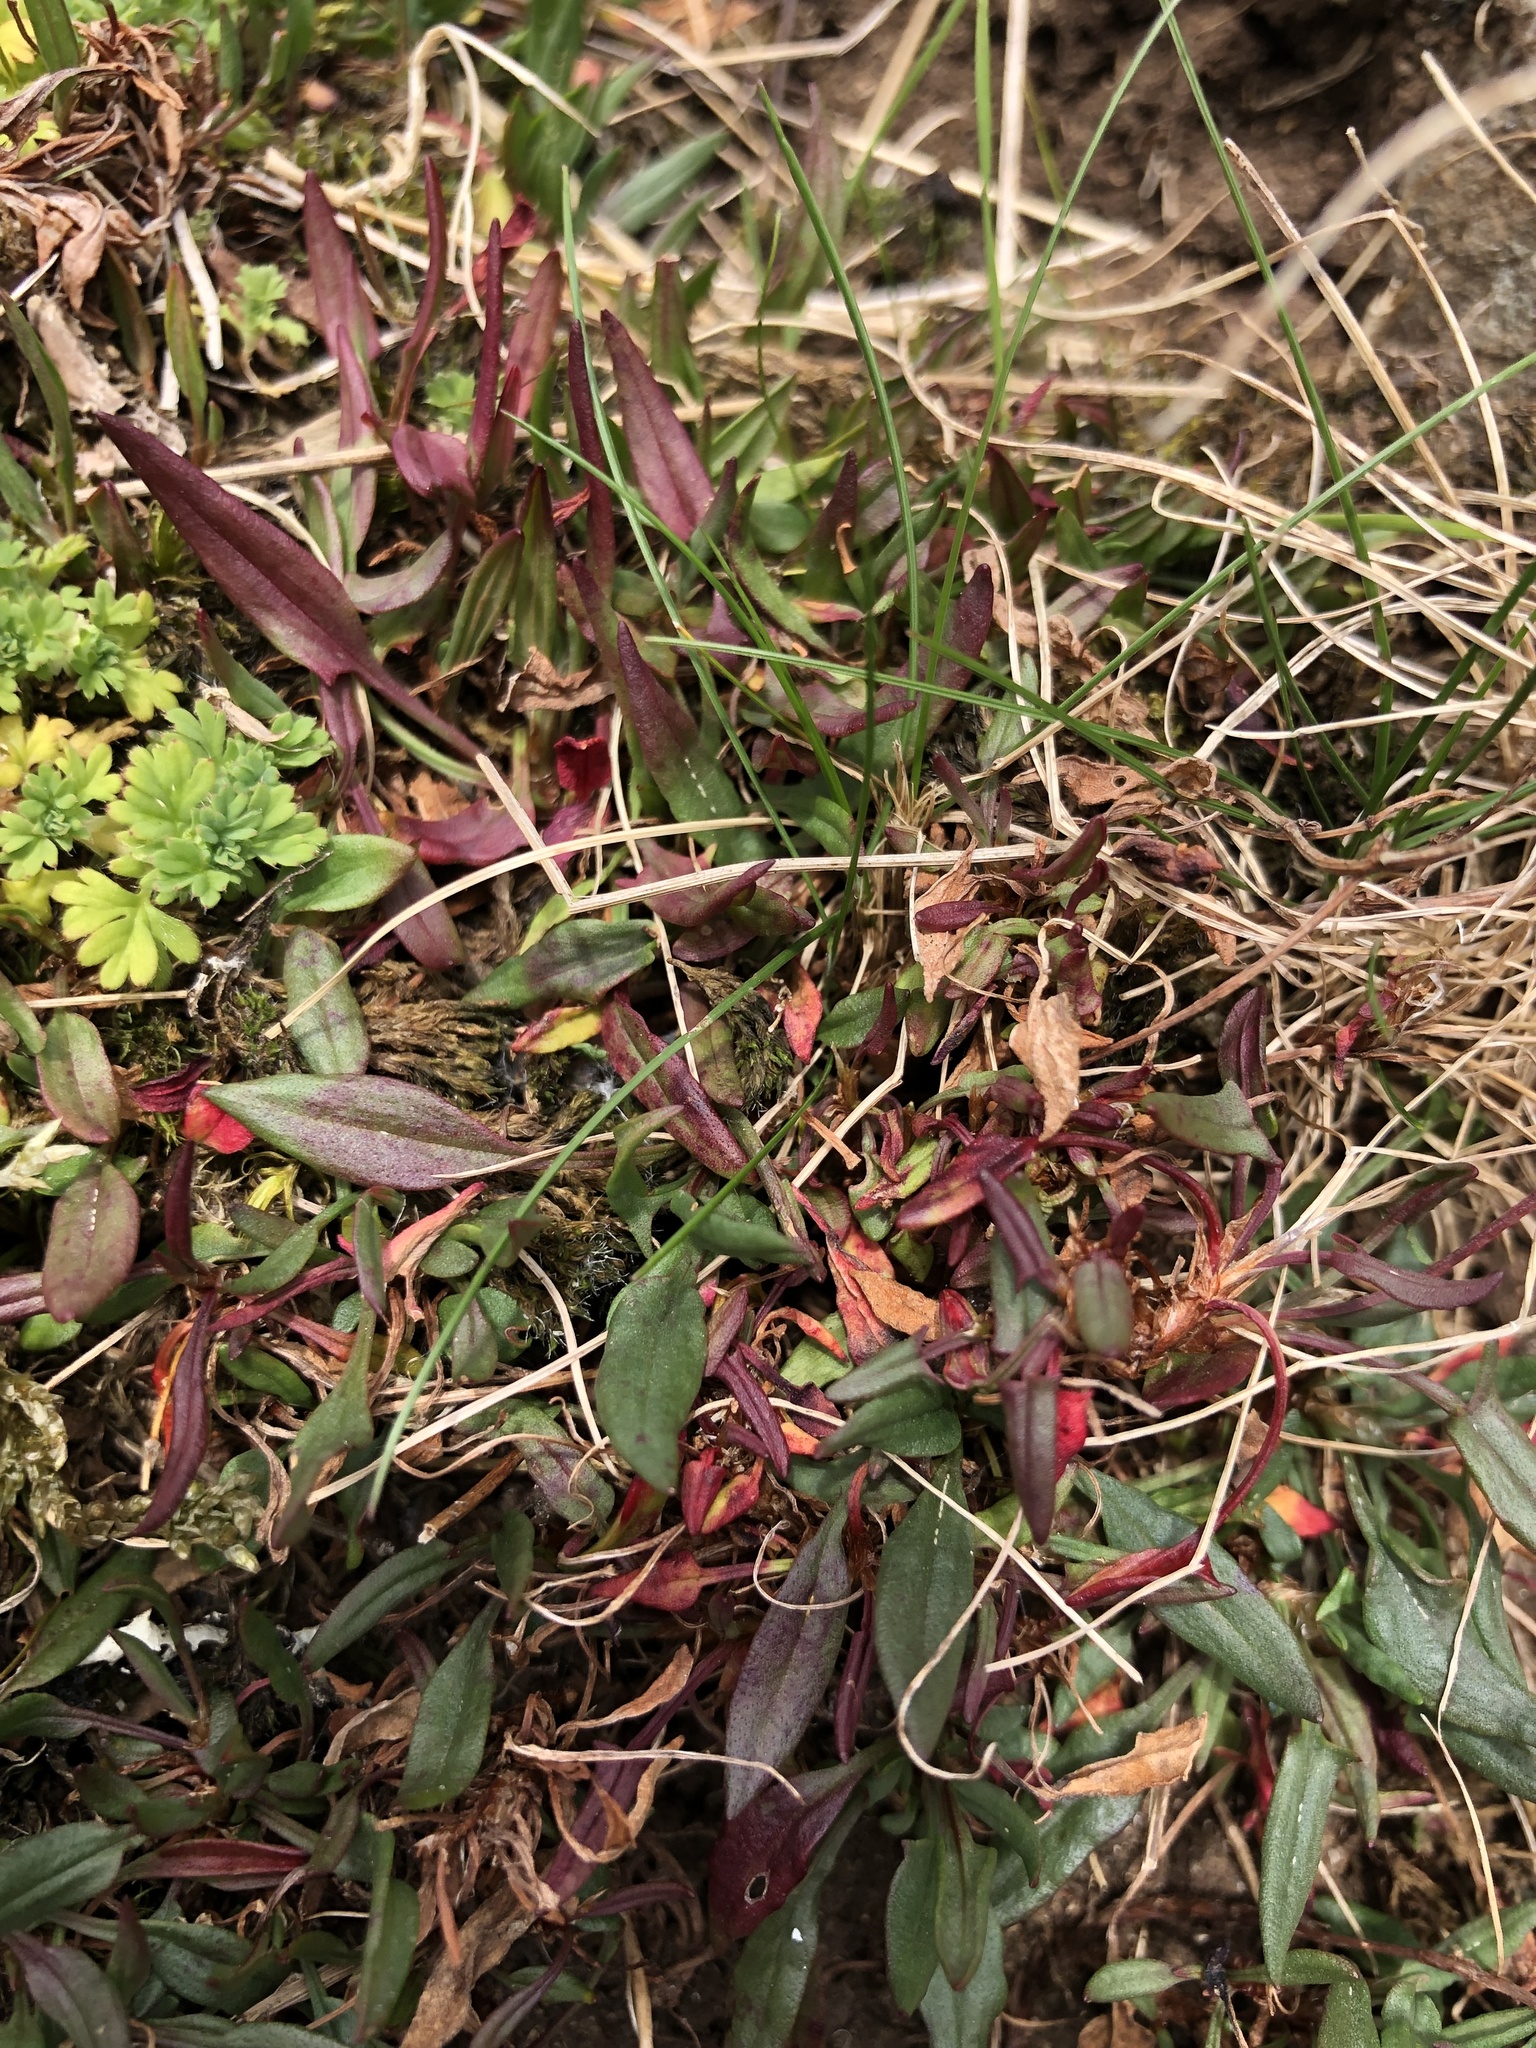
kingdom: Plantae
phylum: Tracheophyta
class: Magnoliopsida
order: Caryophyllales
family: Polygonaceae
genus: Rumex
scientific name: Rumex acetosella
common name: Common sheep sorrel
